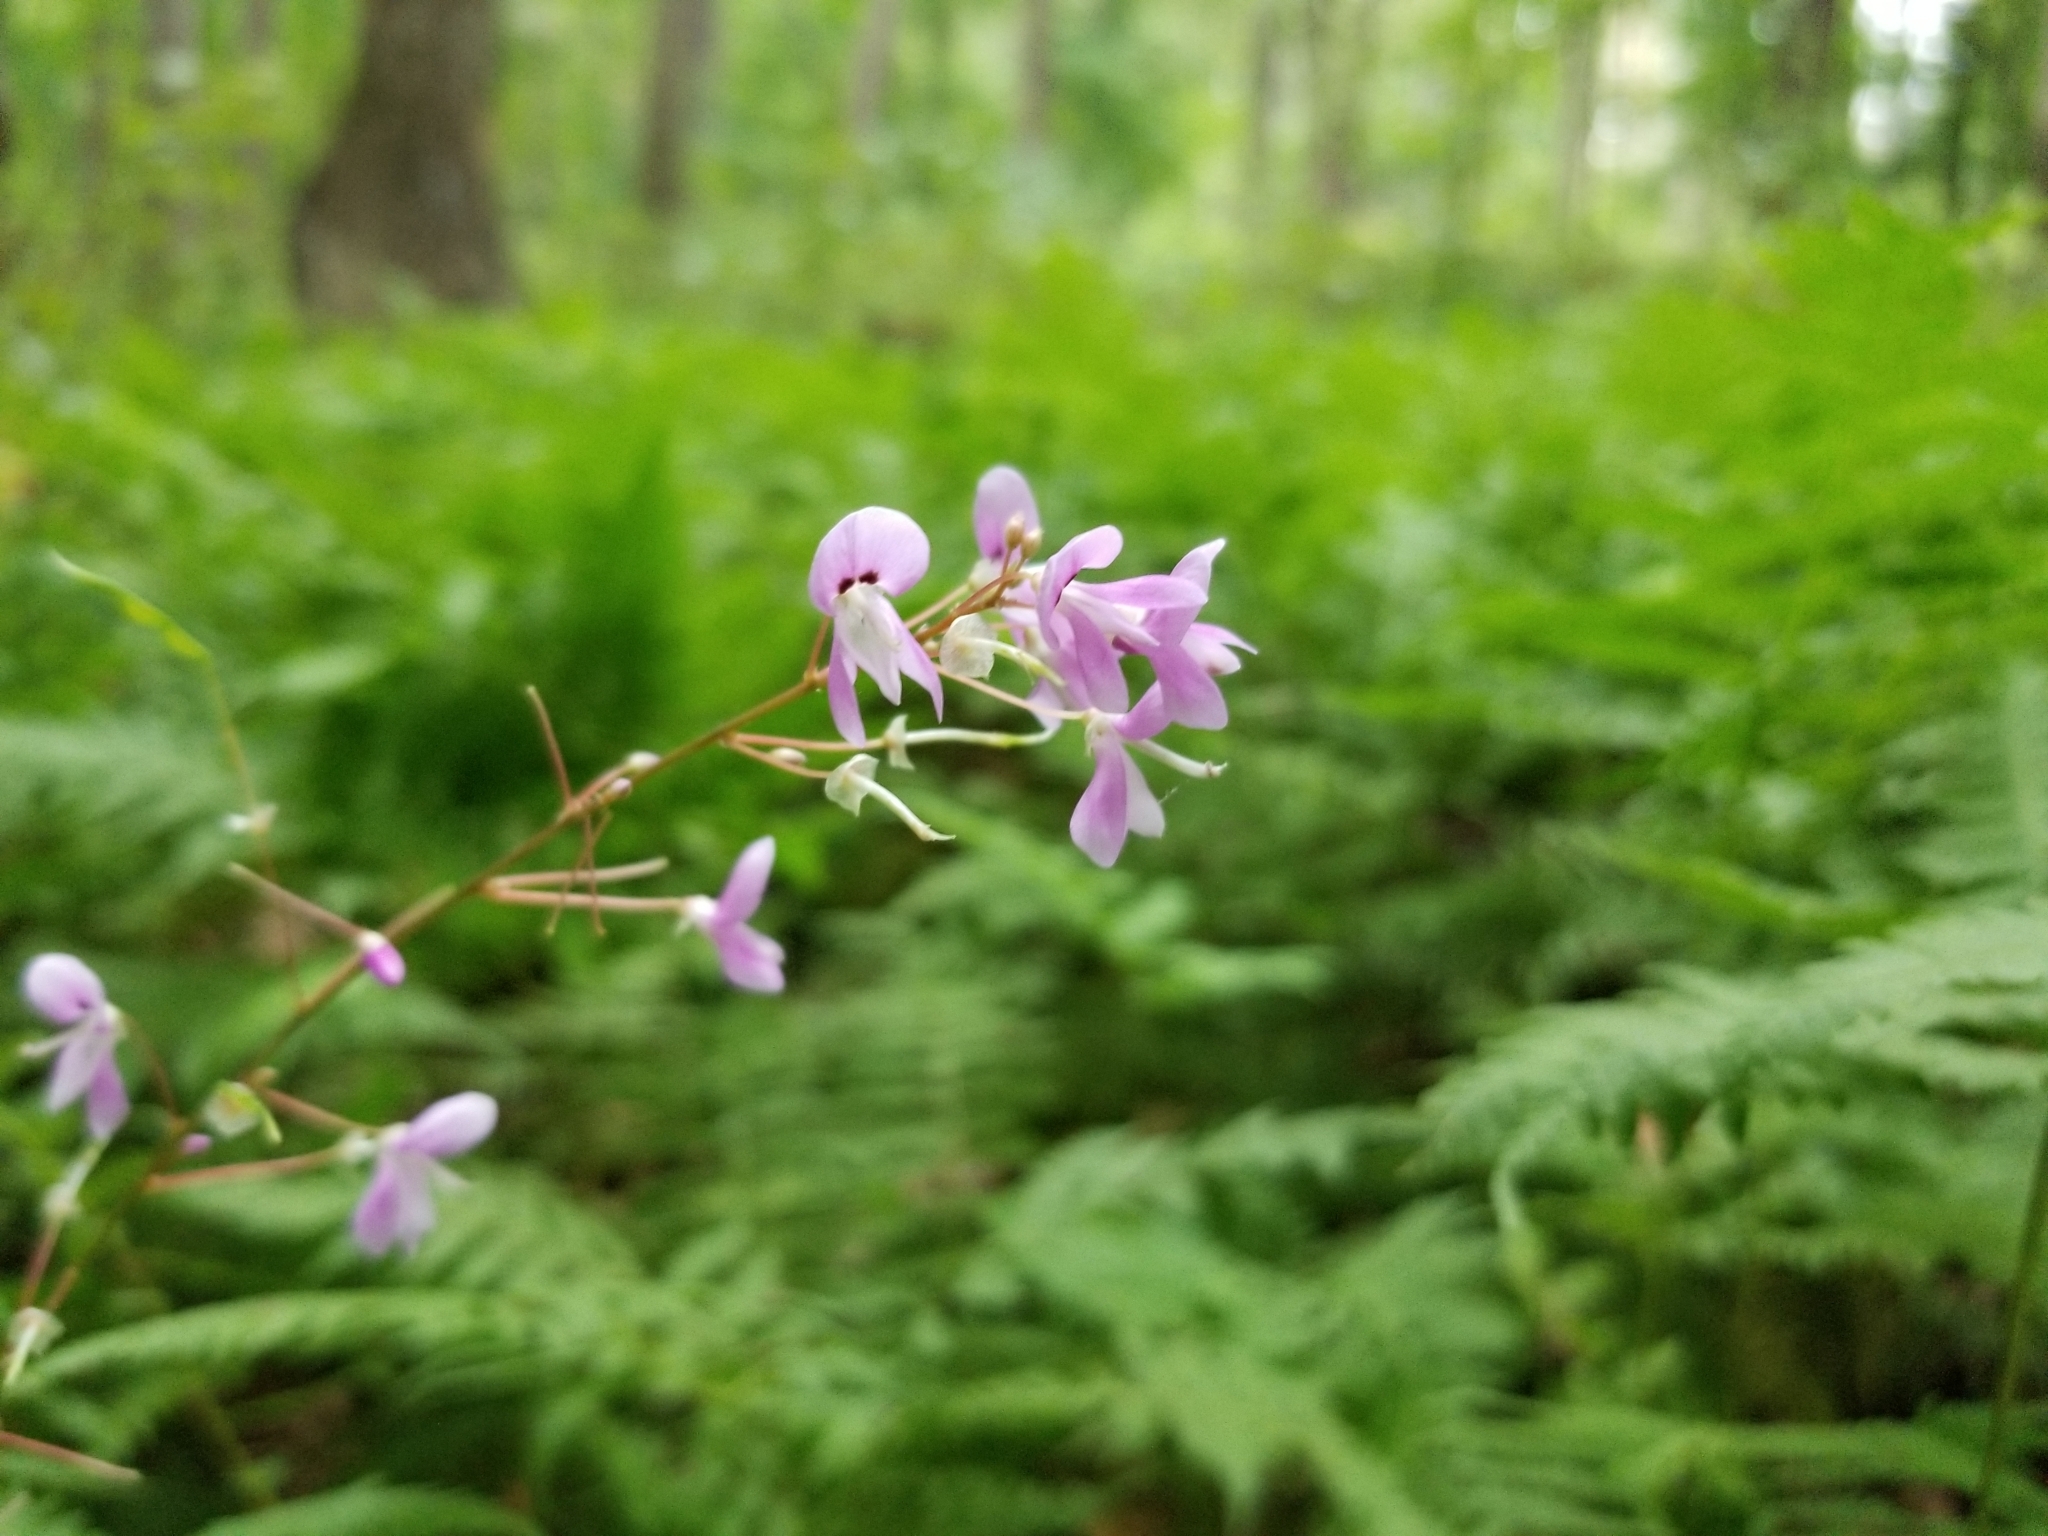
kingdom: Plantae
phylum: Tracheophyta
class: Magnoliopsida
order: Fabales
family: Fabaceae
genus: Hylodesmum
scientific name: Hylodesmum nudiflorum
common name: Bare-stemmed tick-trefoil
